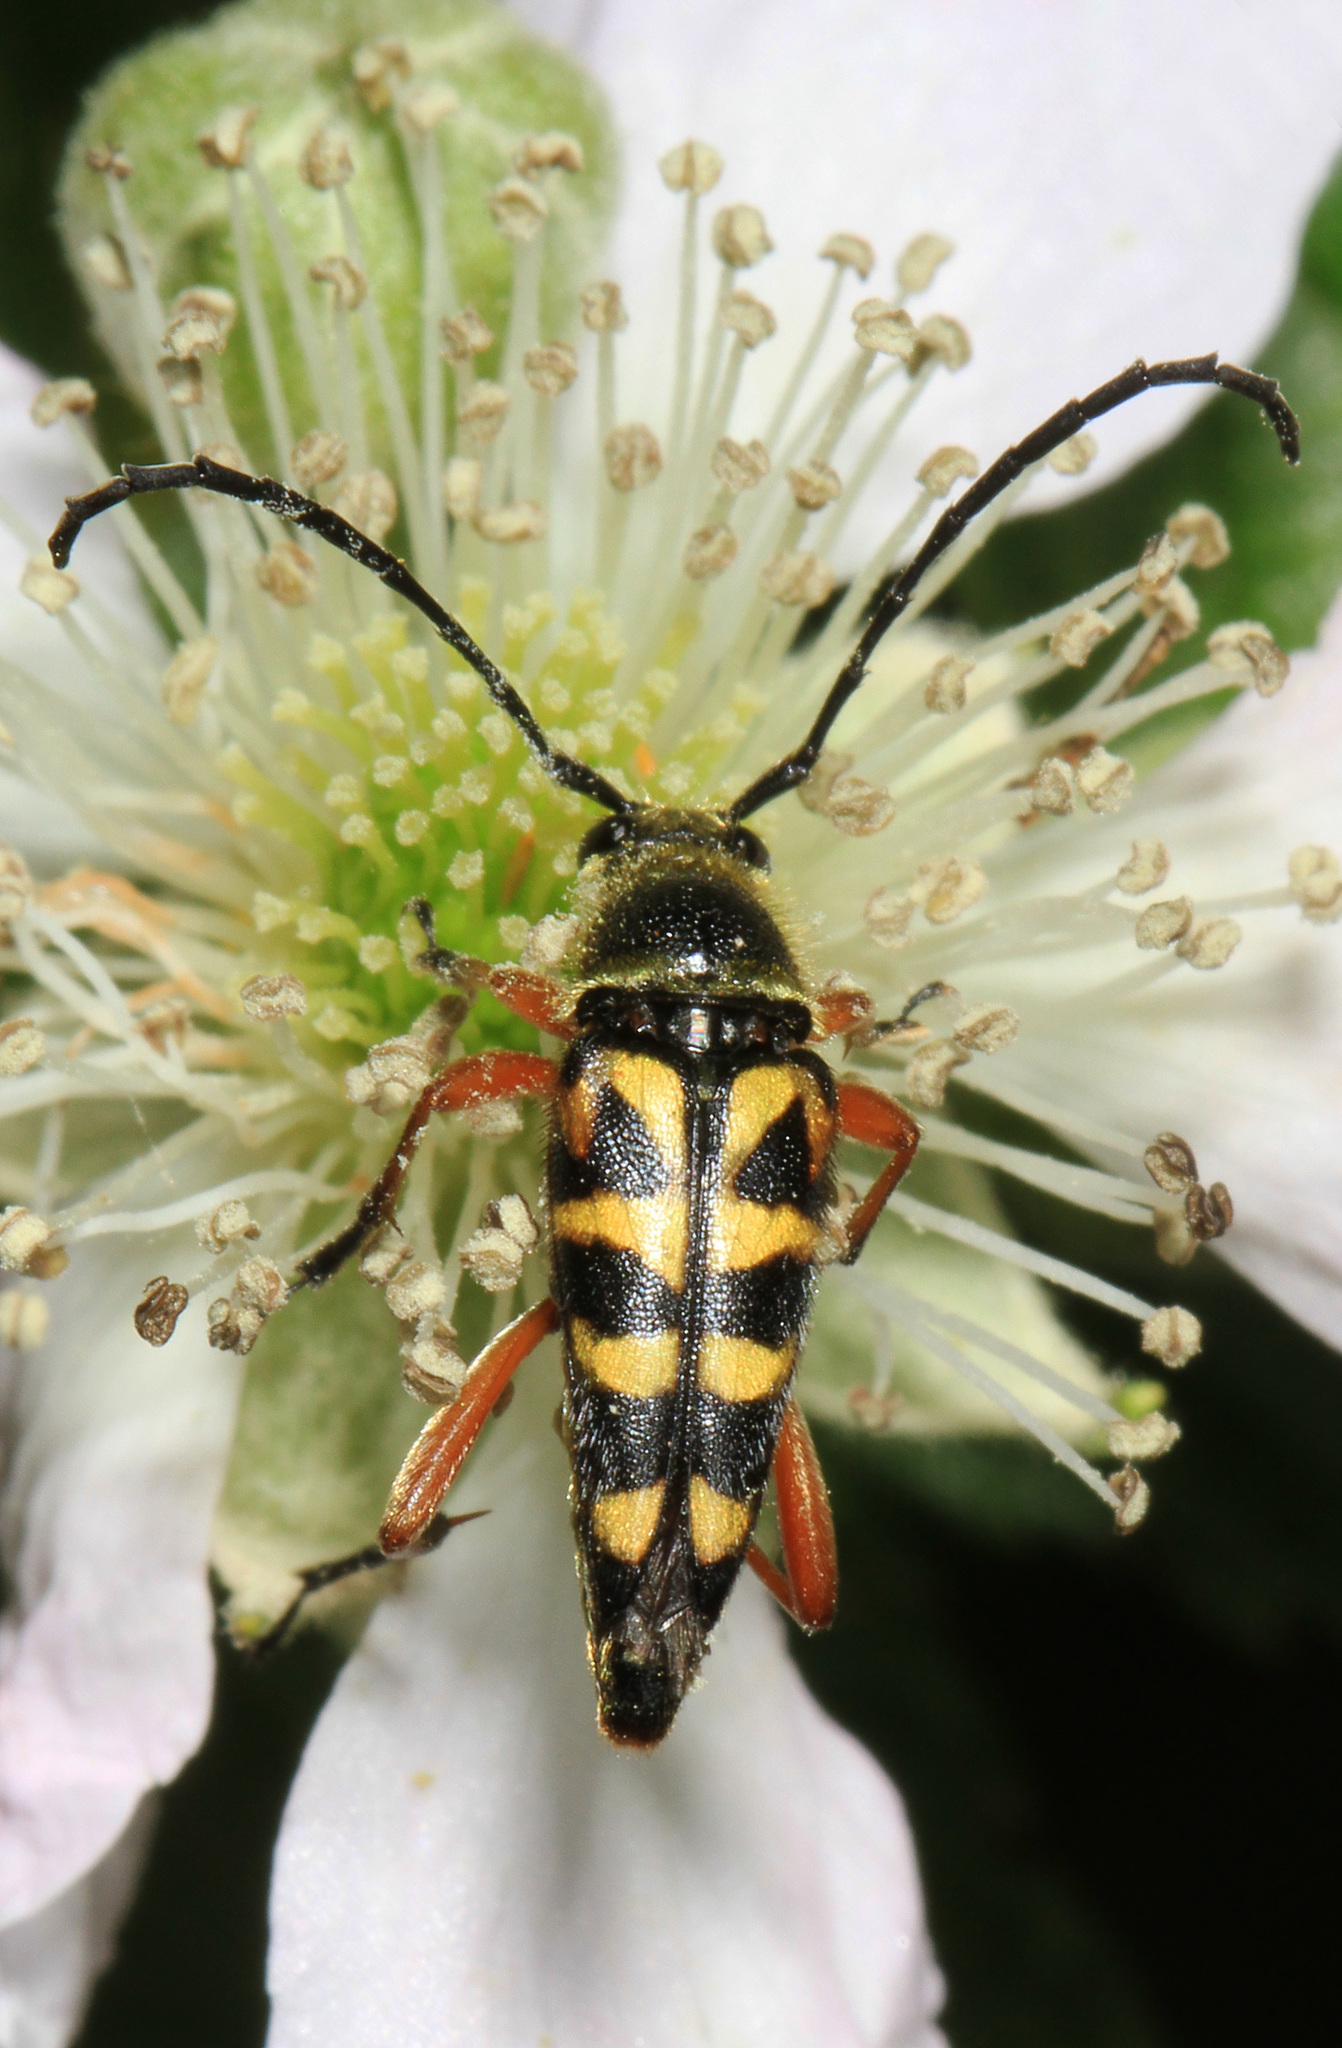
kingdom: Animalia
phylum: Arthropoda
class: Insecta
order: Coleoptera
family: Cerambycidae
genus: Typocerus
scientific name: Typocerus zebra
